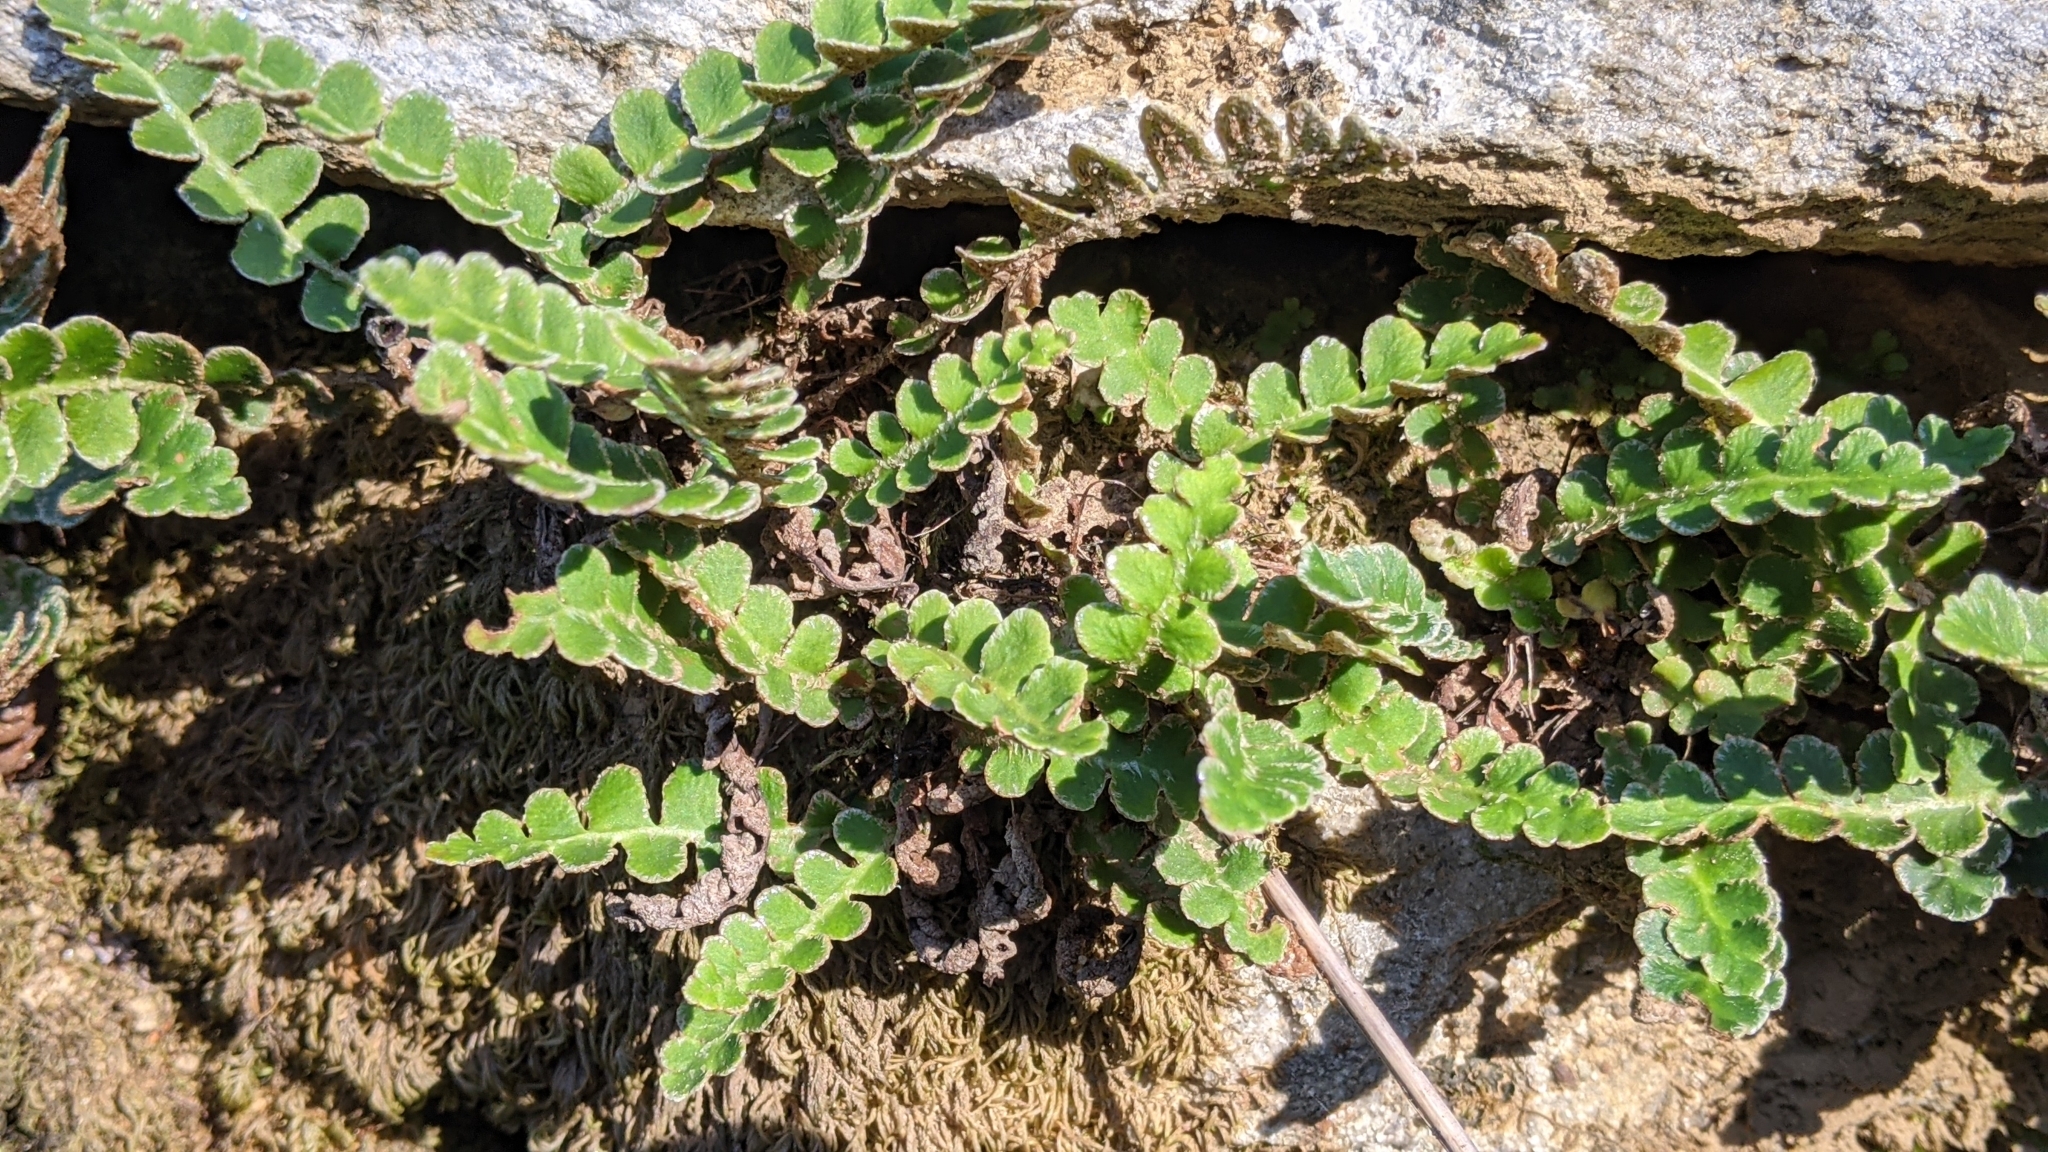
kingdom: Plantae
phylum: Tracheophyta
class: Polypodiopsida
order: Polypodiales
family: Aspleniaceae
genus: Asplenium
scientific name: Asplenium ceterach
